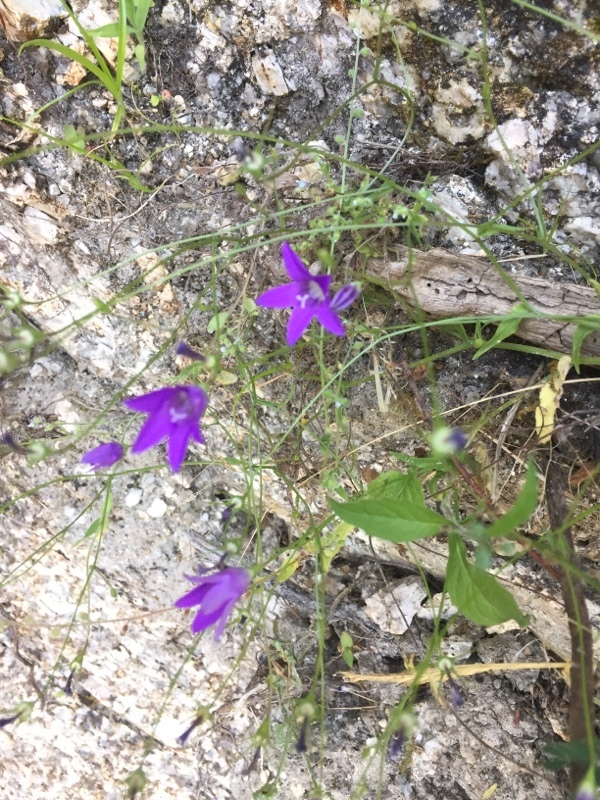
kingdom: Plantae
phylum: Tracheophyta
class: Magnoliopsida
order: Asterales
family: Campanulaceae
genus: Campanula
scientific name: Campanula lusitanica
